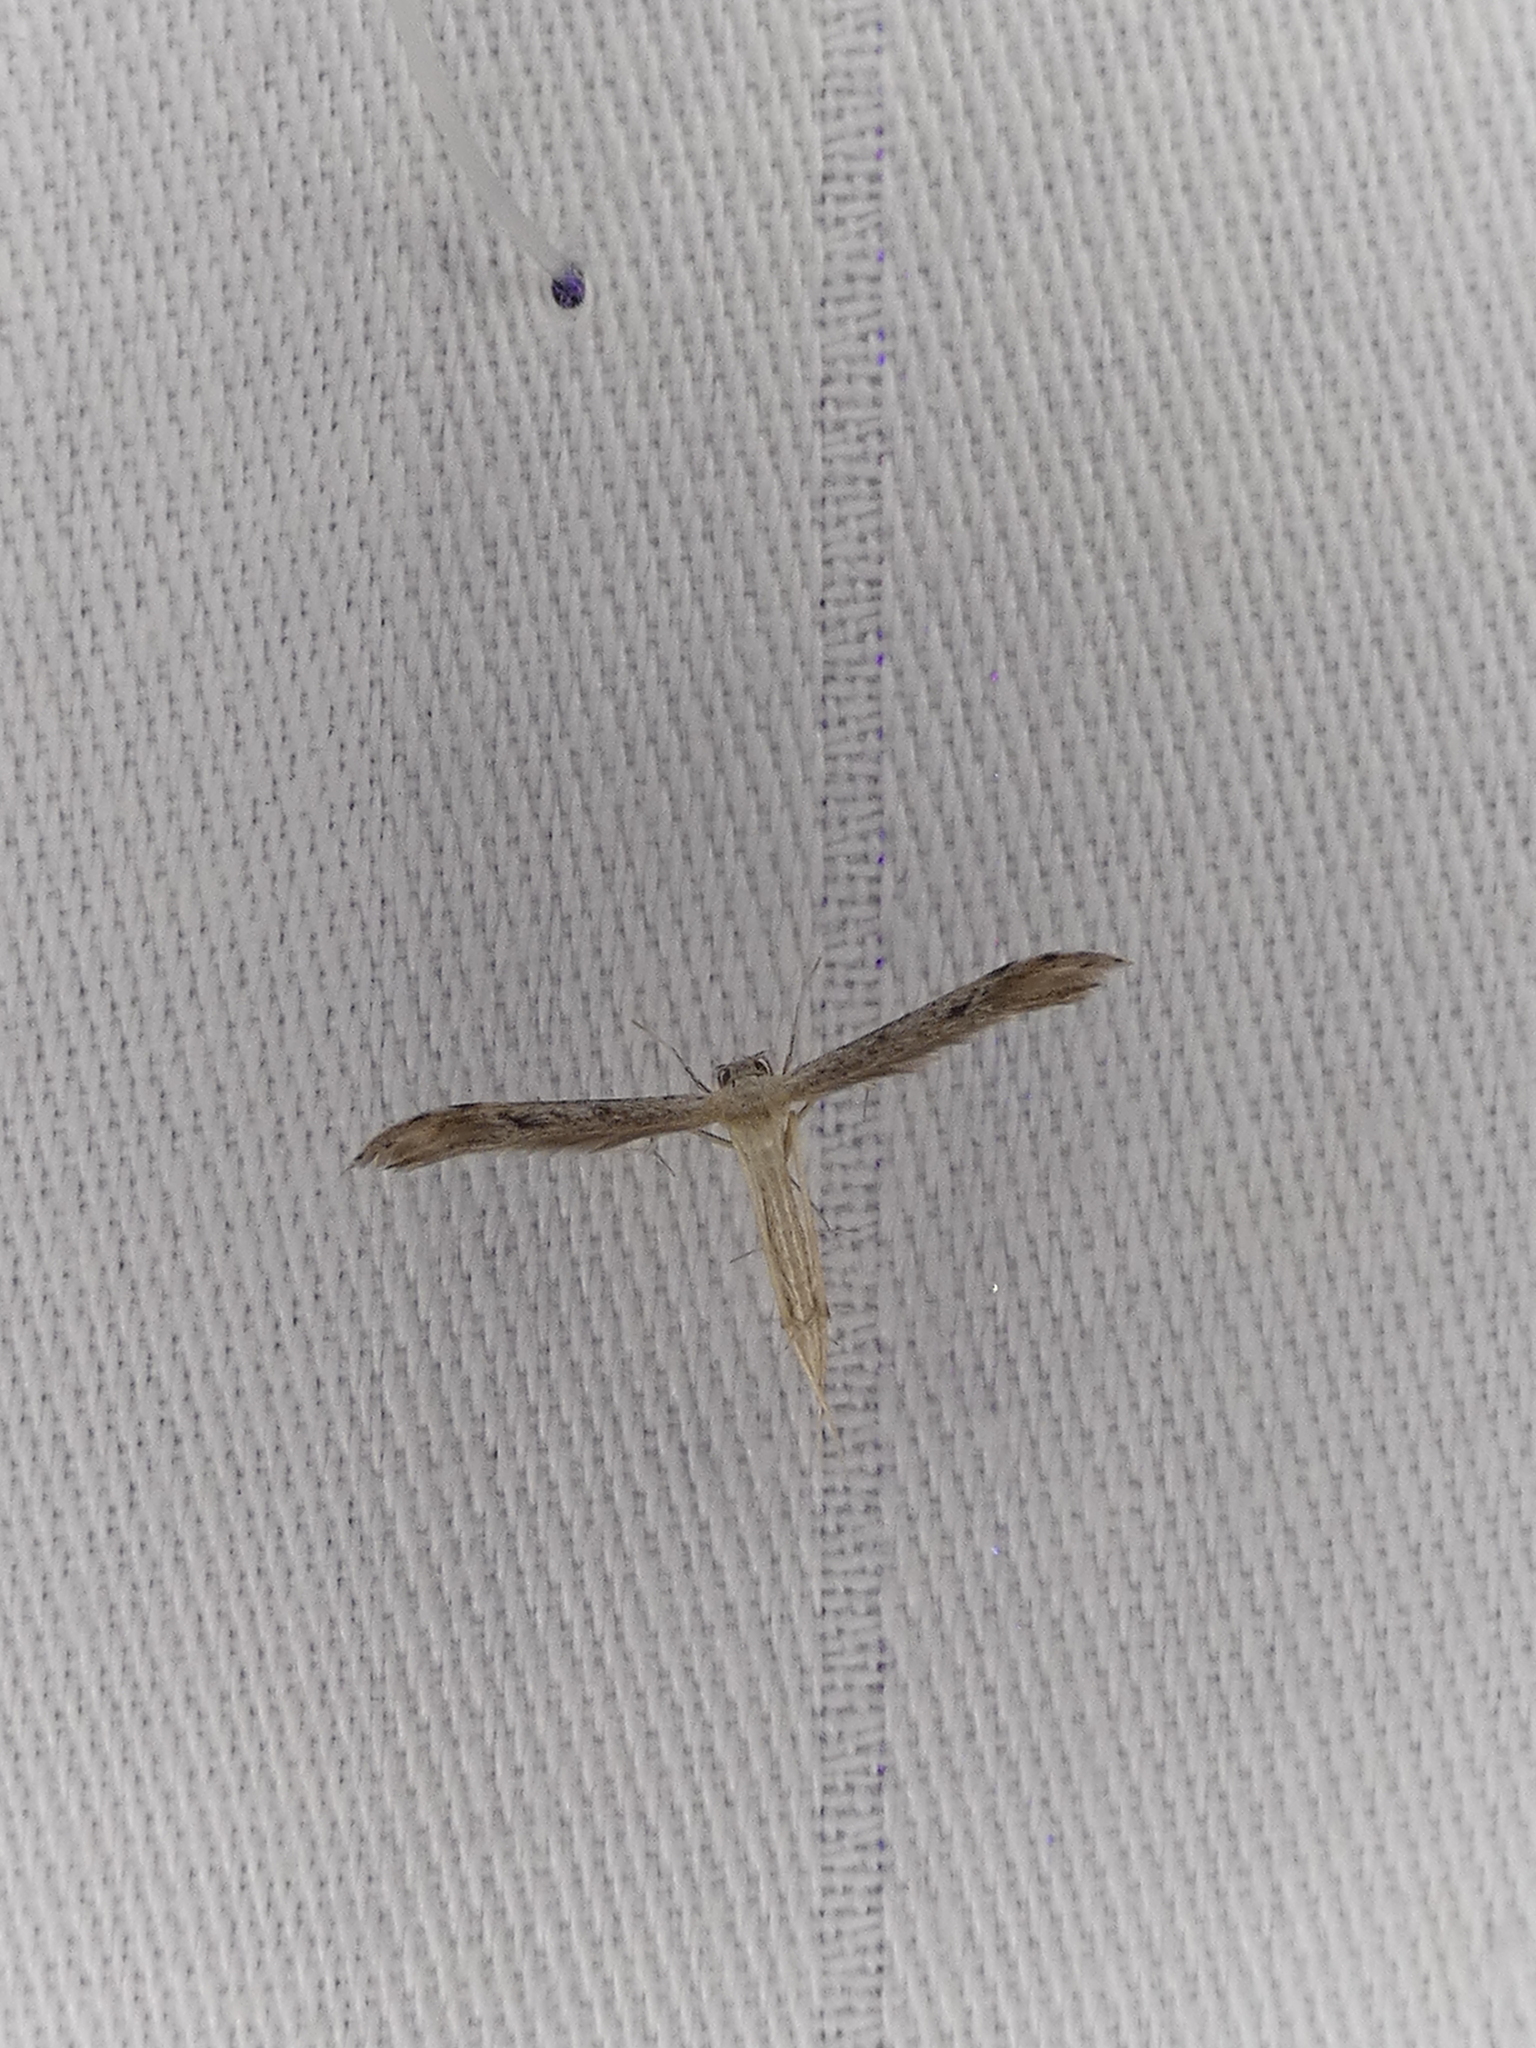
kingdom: Animalia
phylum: Arthropoda
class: Insecta
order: Lepidoptera
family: Pterophoridae
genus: Pselnophorus
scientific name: Pselnophorus belfragei
